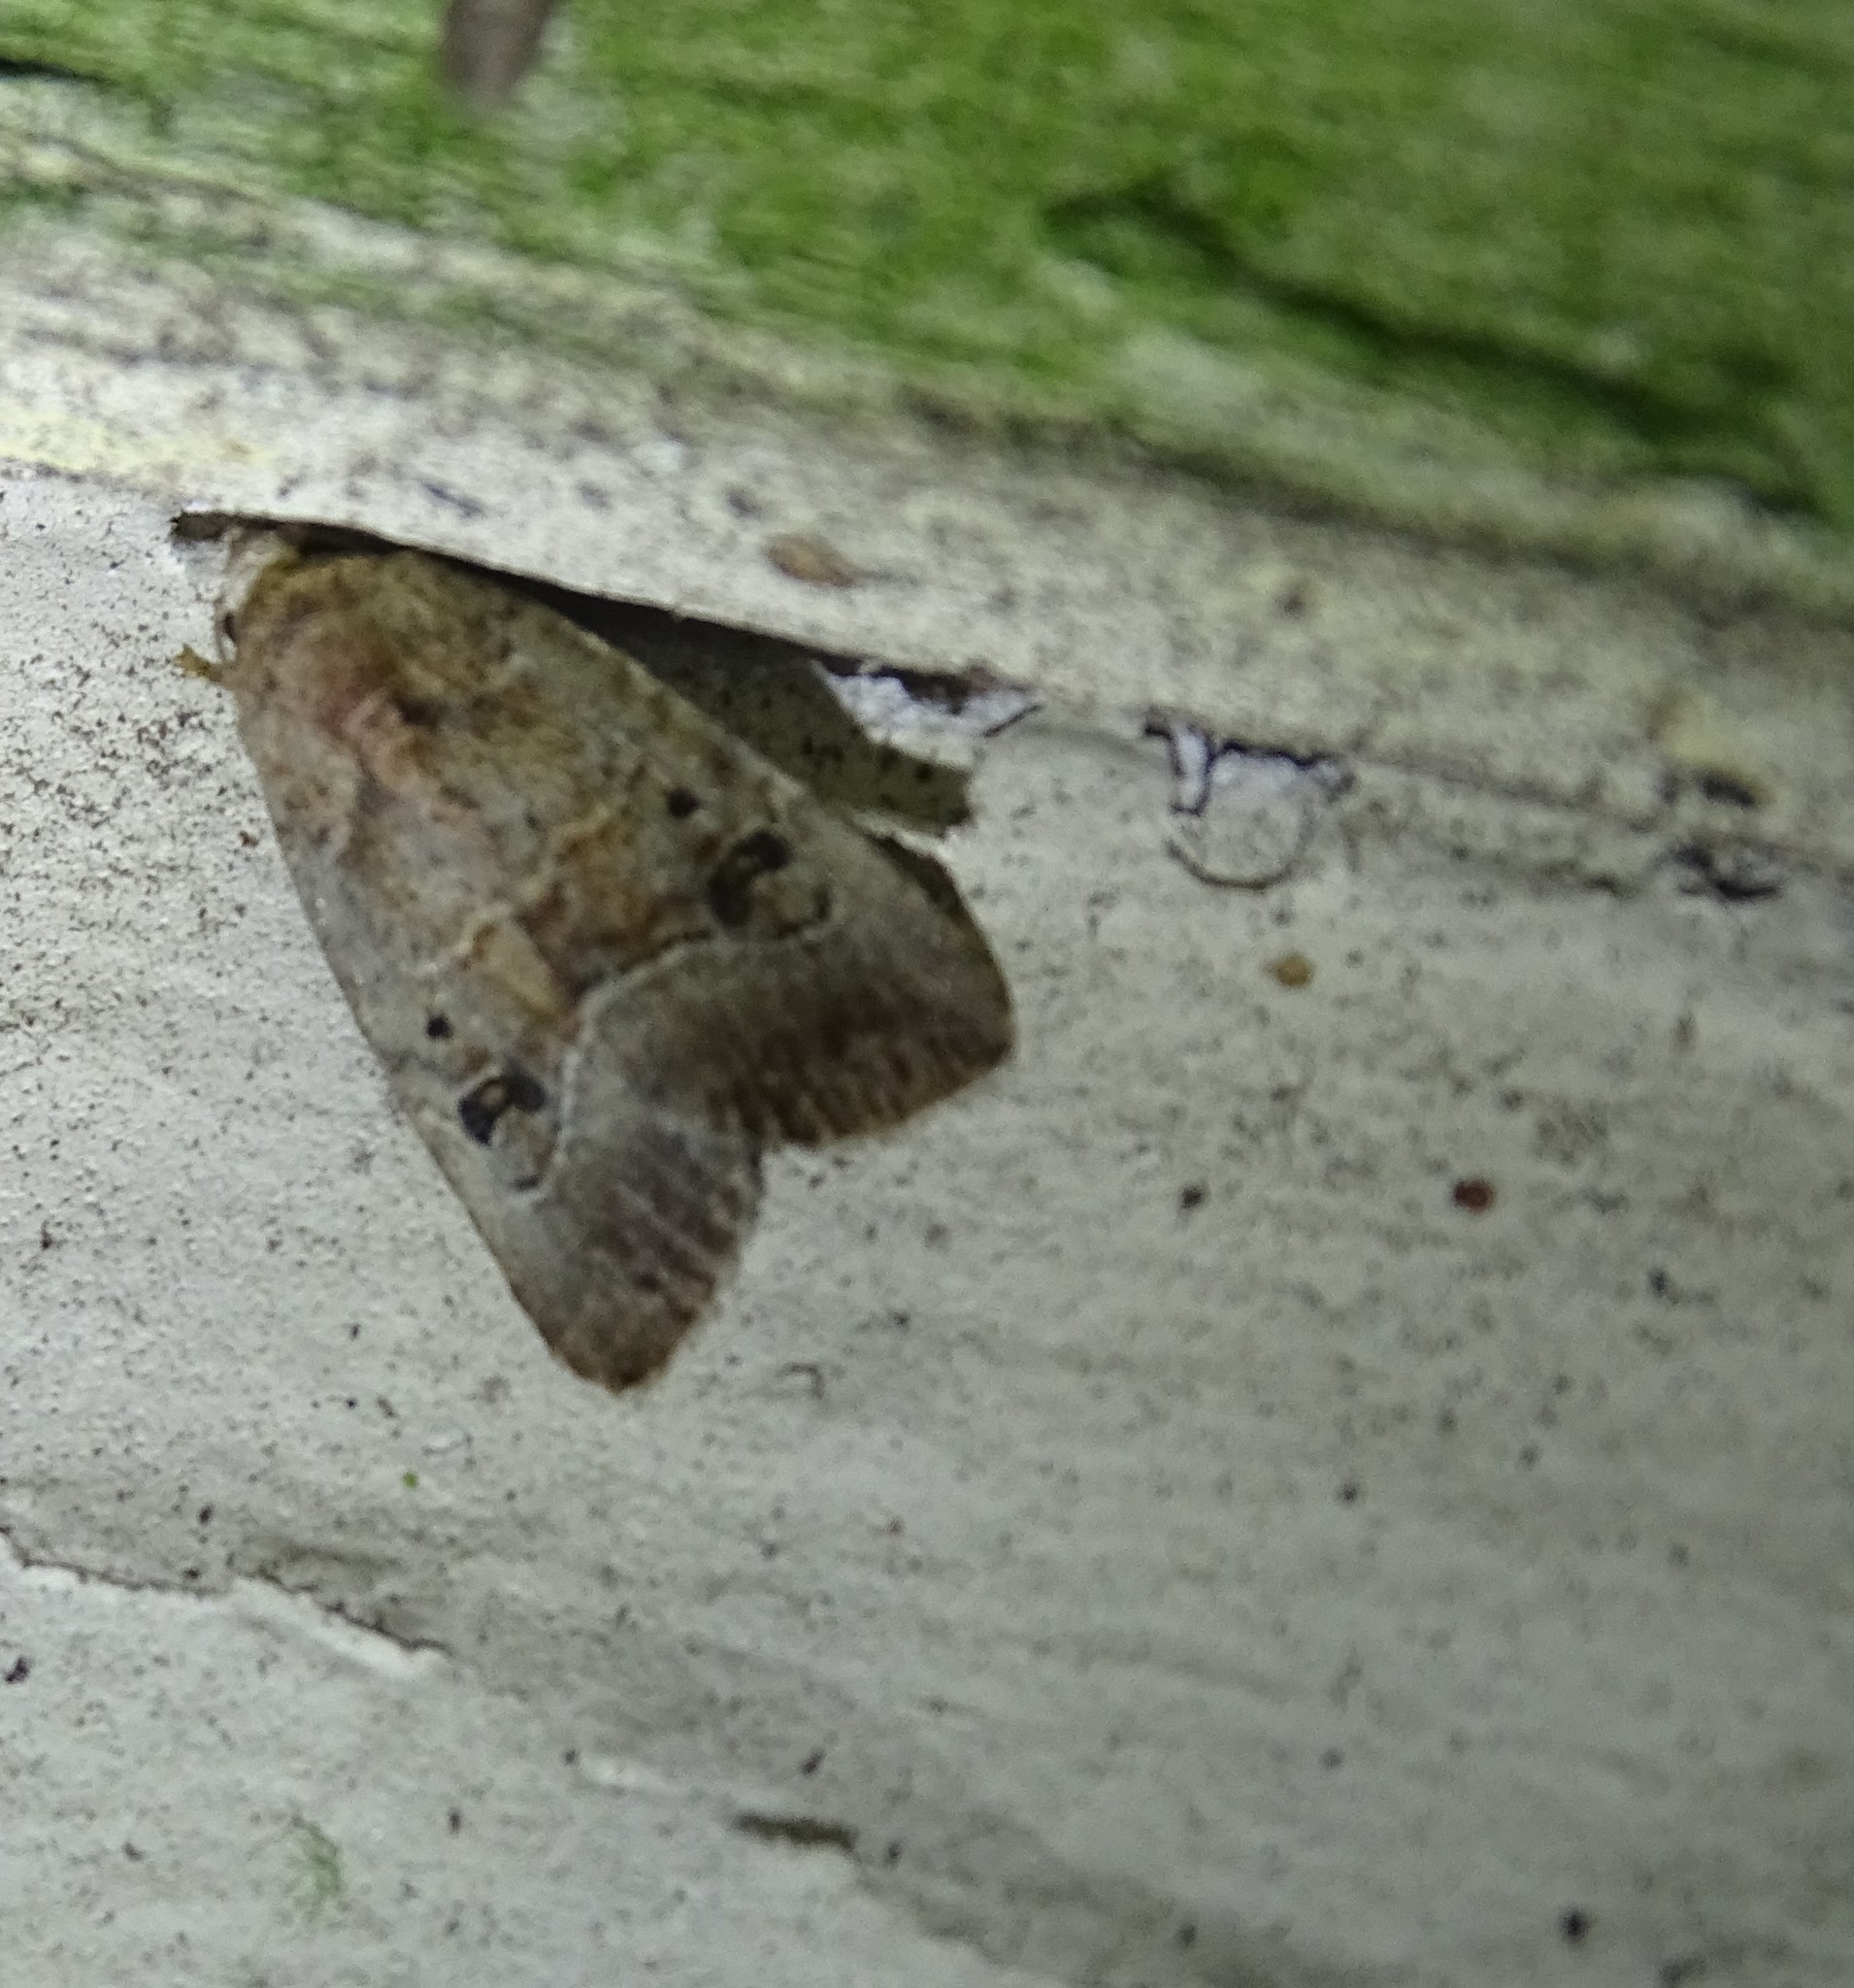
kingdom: Animalia
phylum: Arthropoda
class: Insecta
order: Lepidoptera
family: Noctuidae
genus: Elaphria
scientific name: Elaphria fuscimacula
